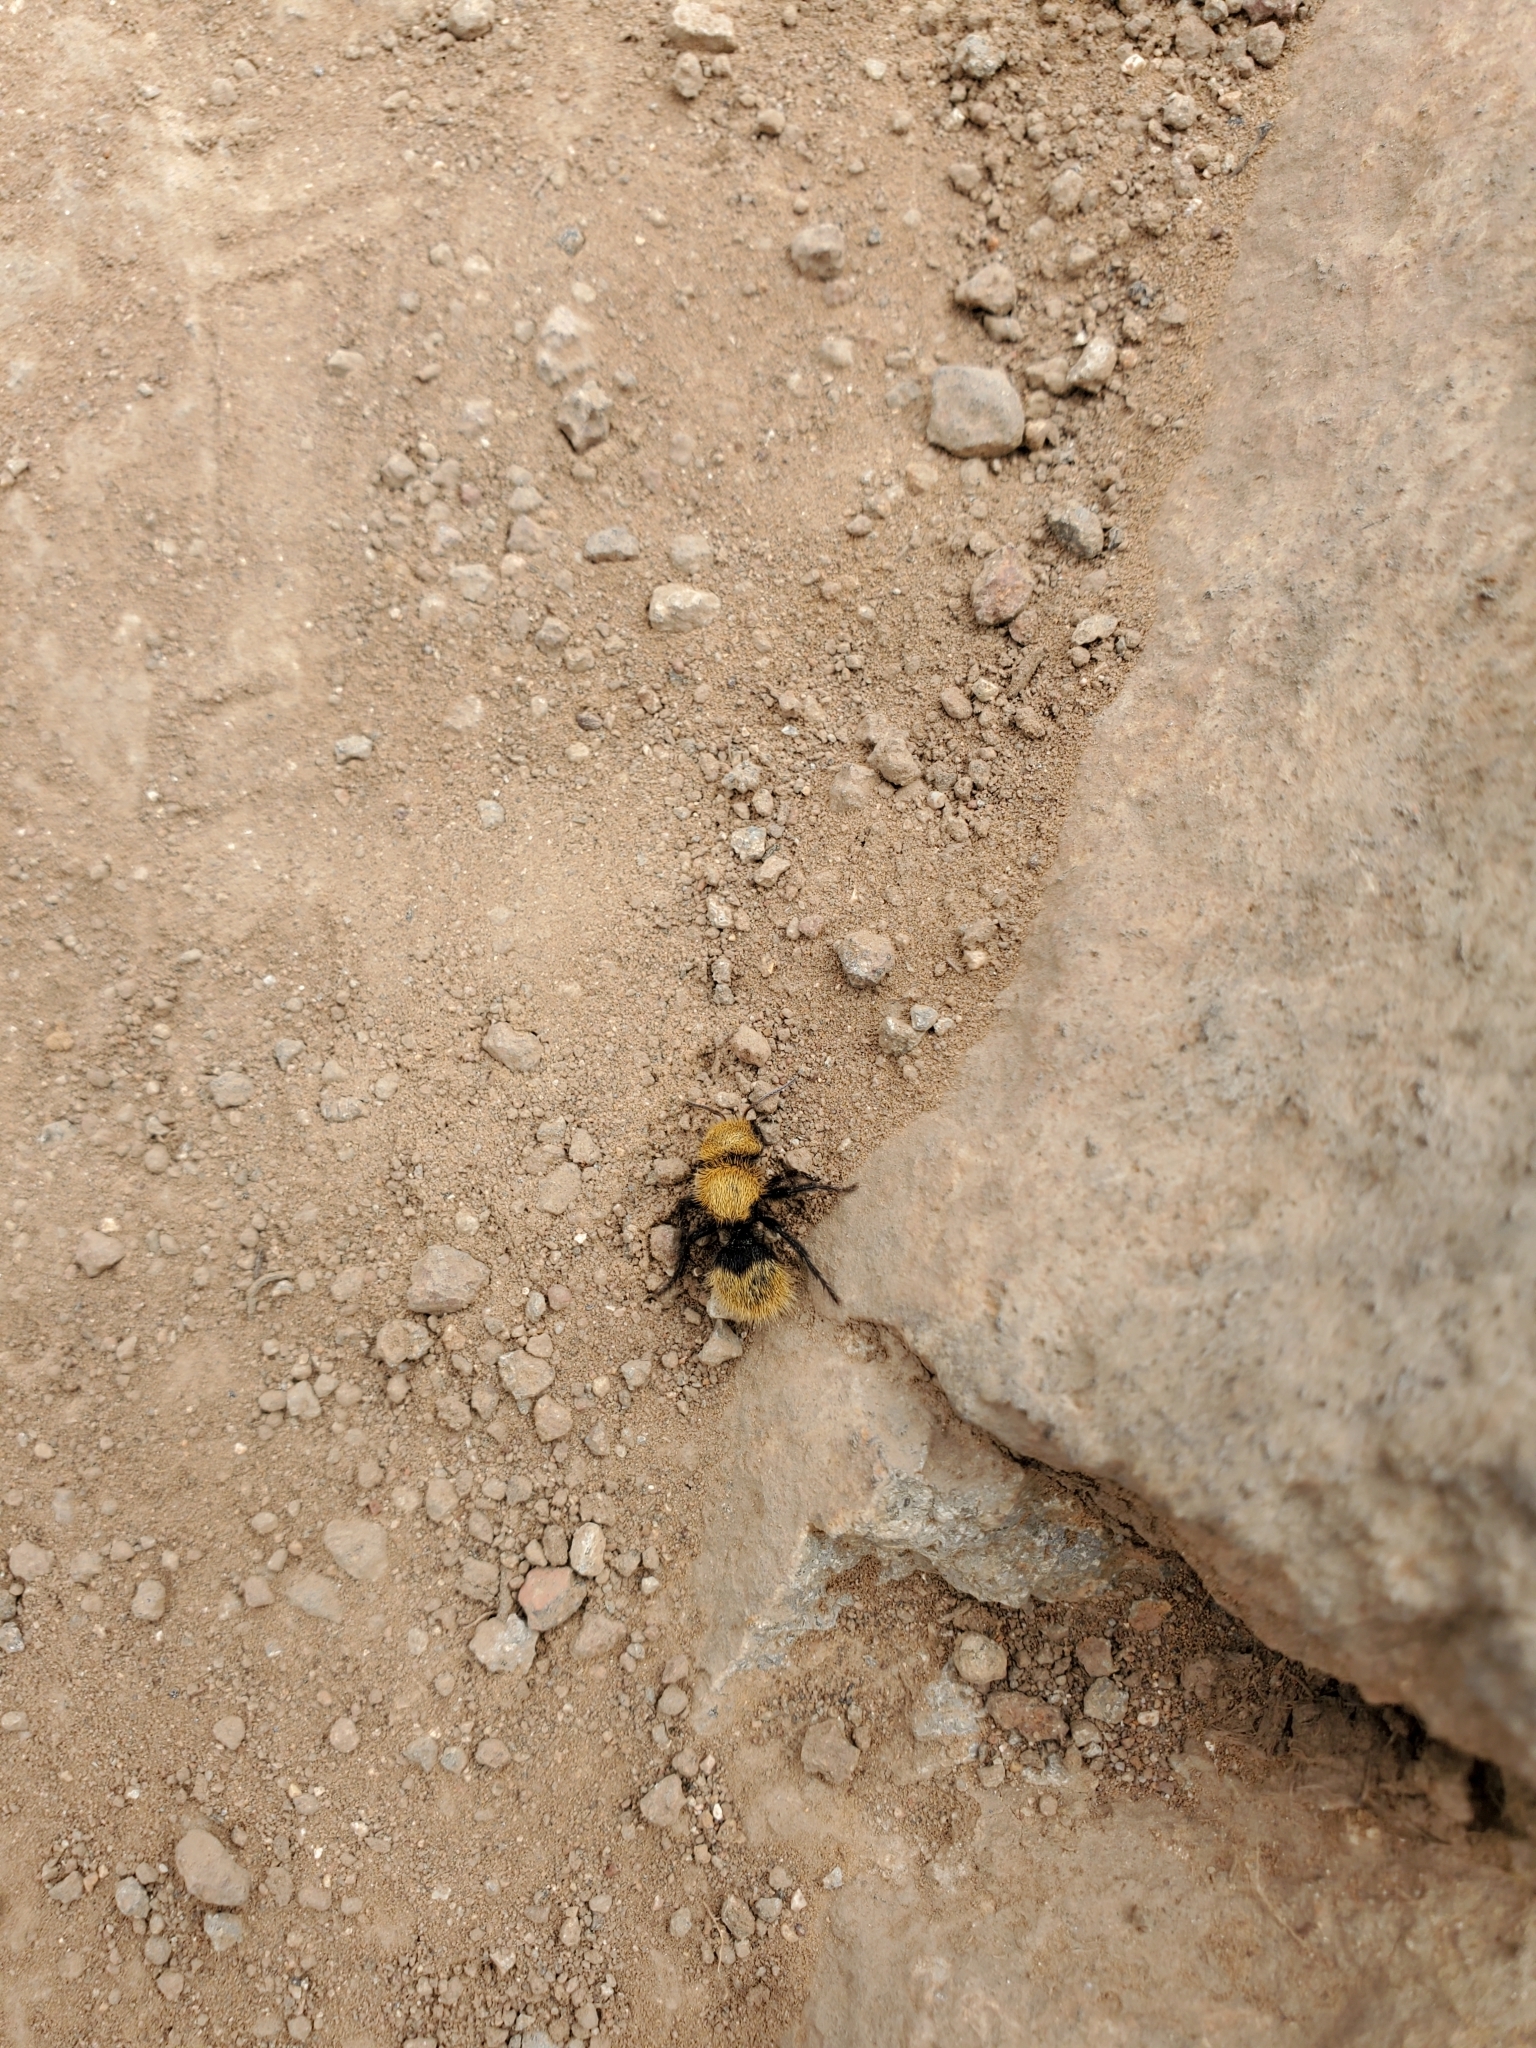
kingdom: Animalia
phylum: Arthropoda
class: Insecta
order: Hymenoptera
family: Mutillidae
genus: Dasymutilla
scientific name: Dasymutilla
